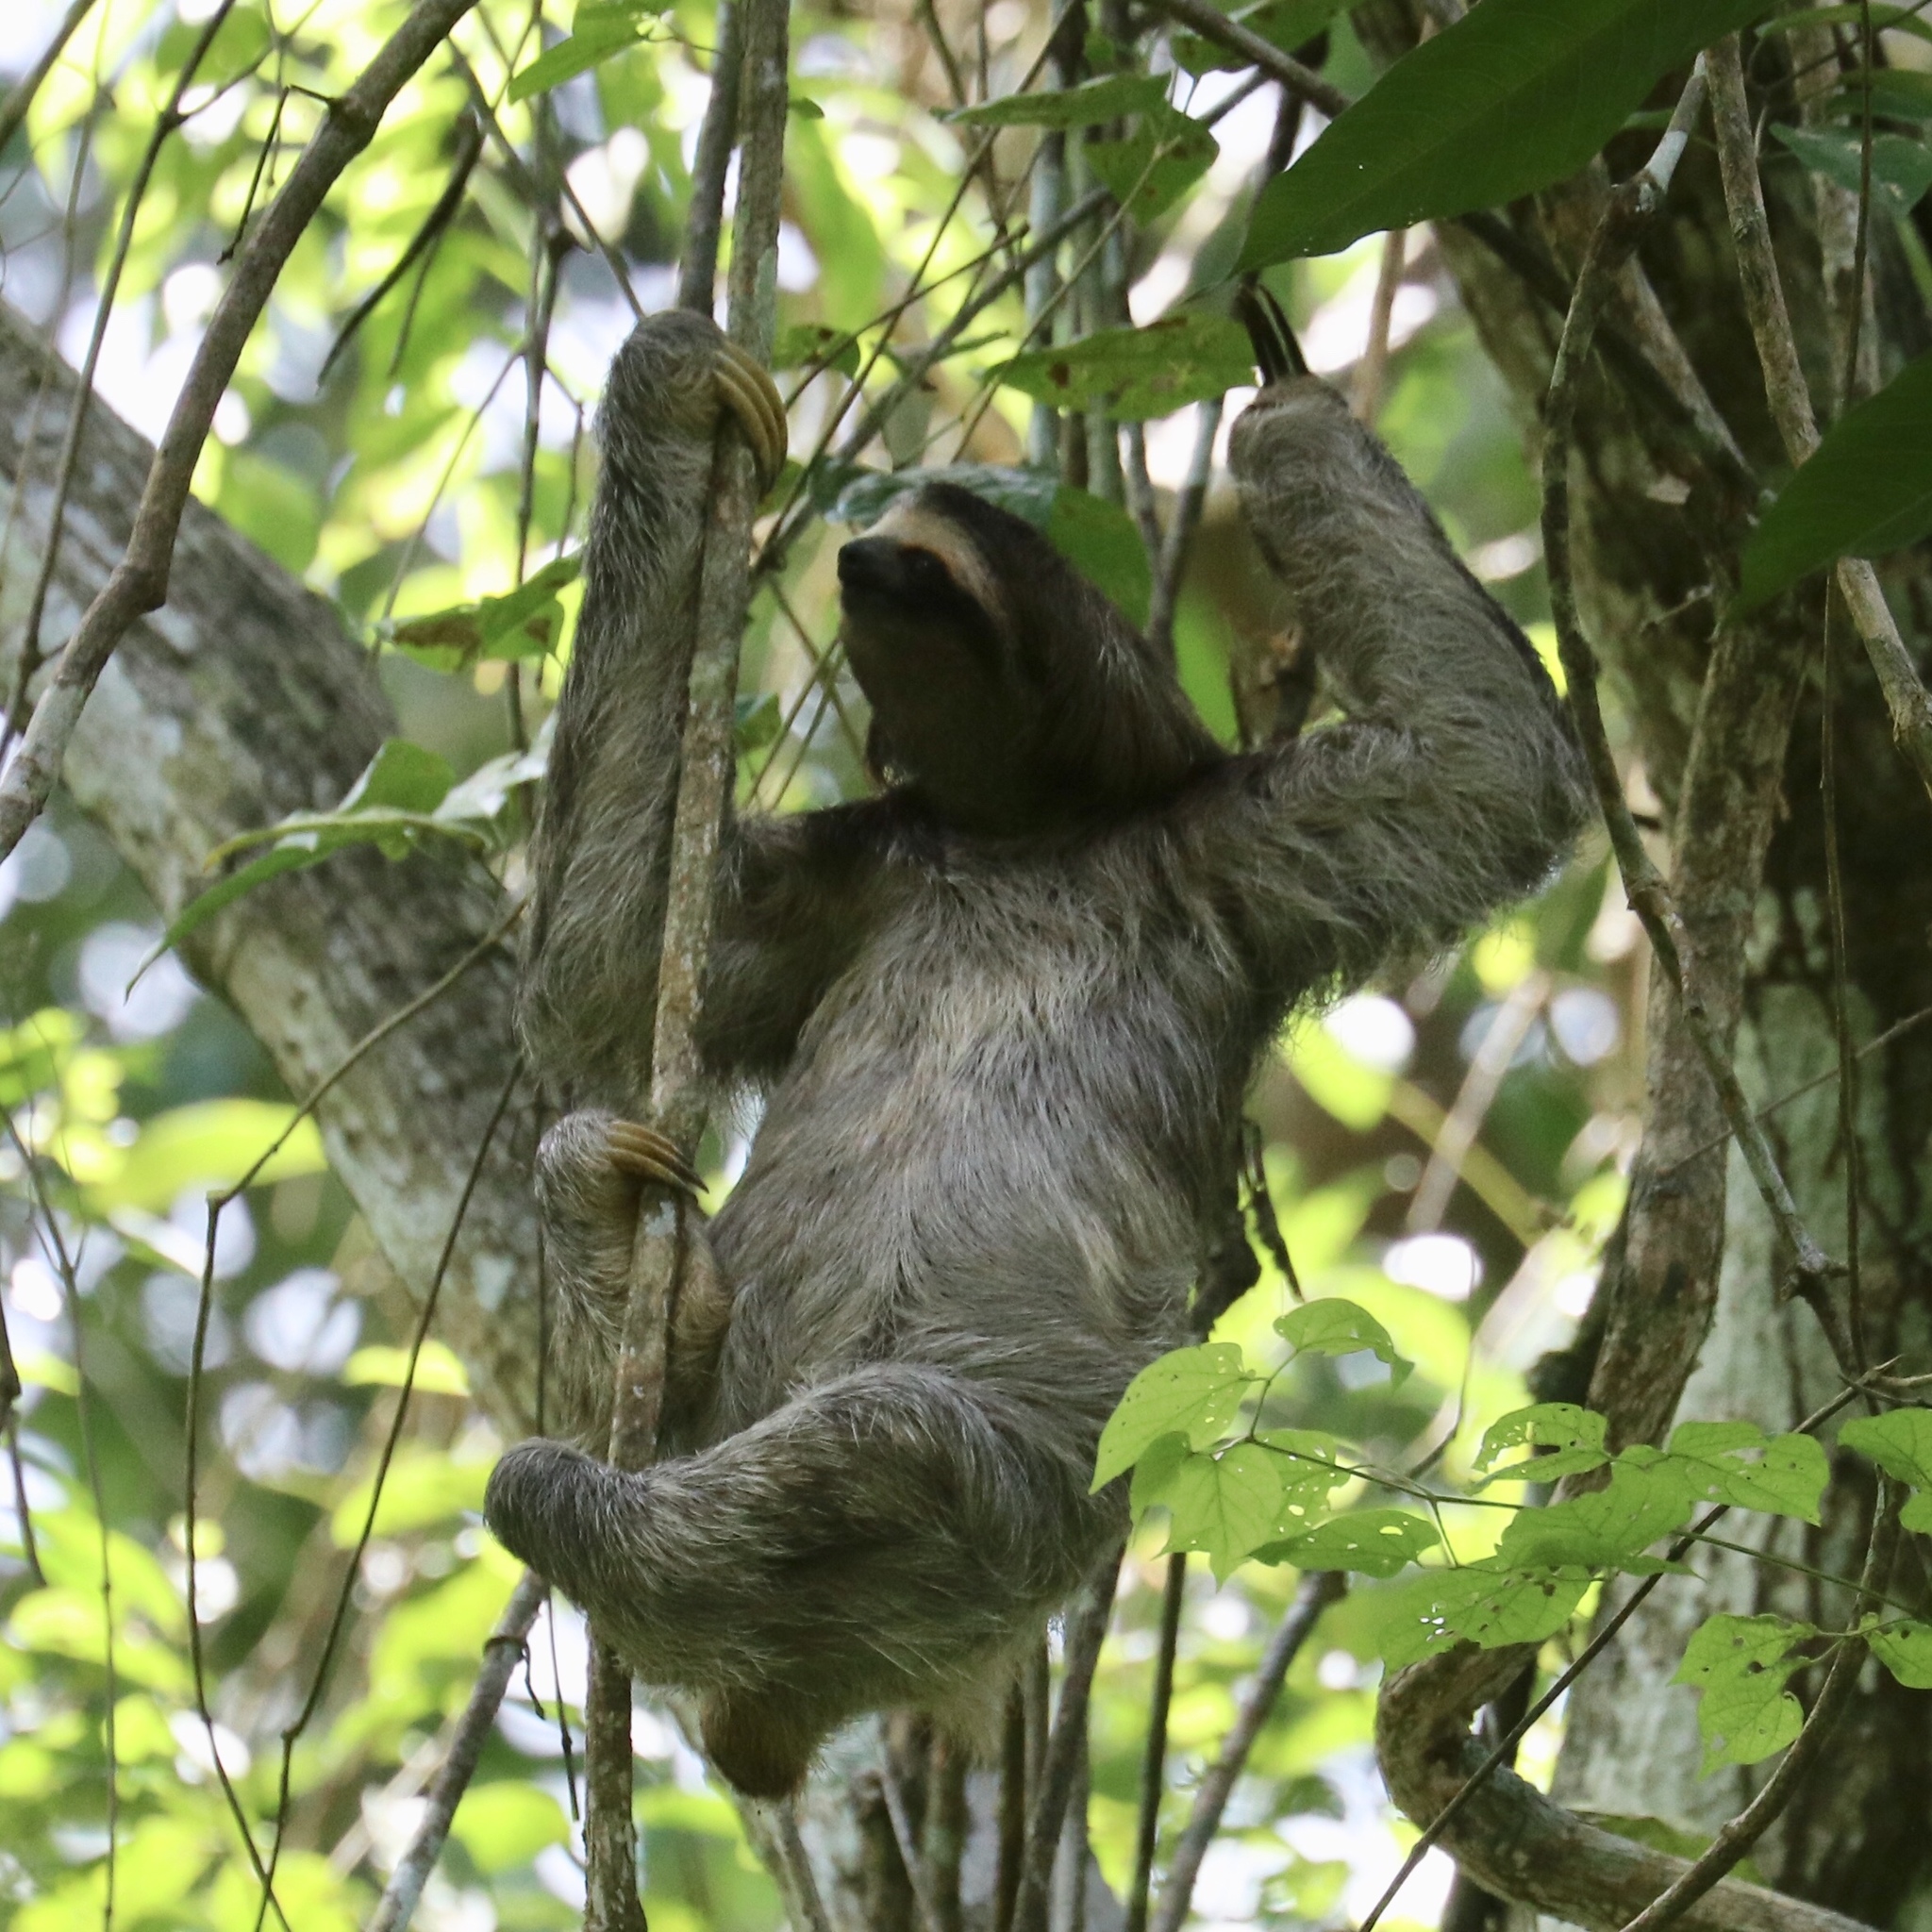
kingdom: Animalia
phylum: Chordata
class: Mammalia
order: Pilosa
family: Bradypodidae
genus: Bradypus
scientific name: Bradypus variegatus
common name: Brown-throated three-toed sloth
